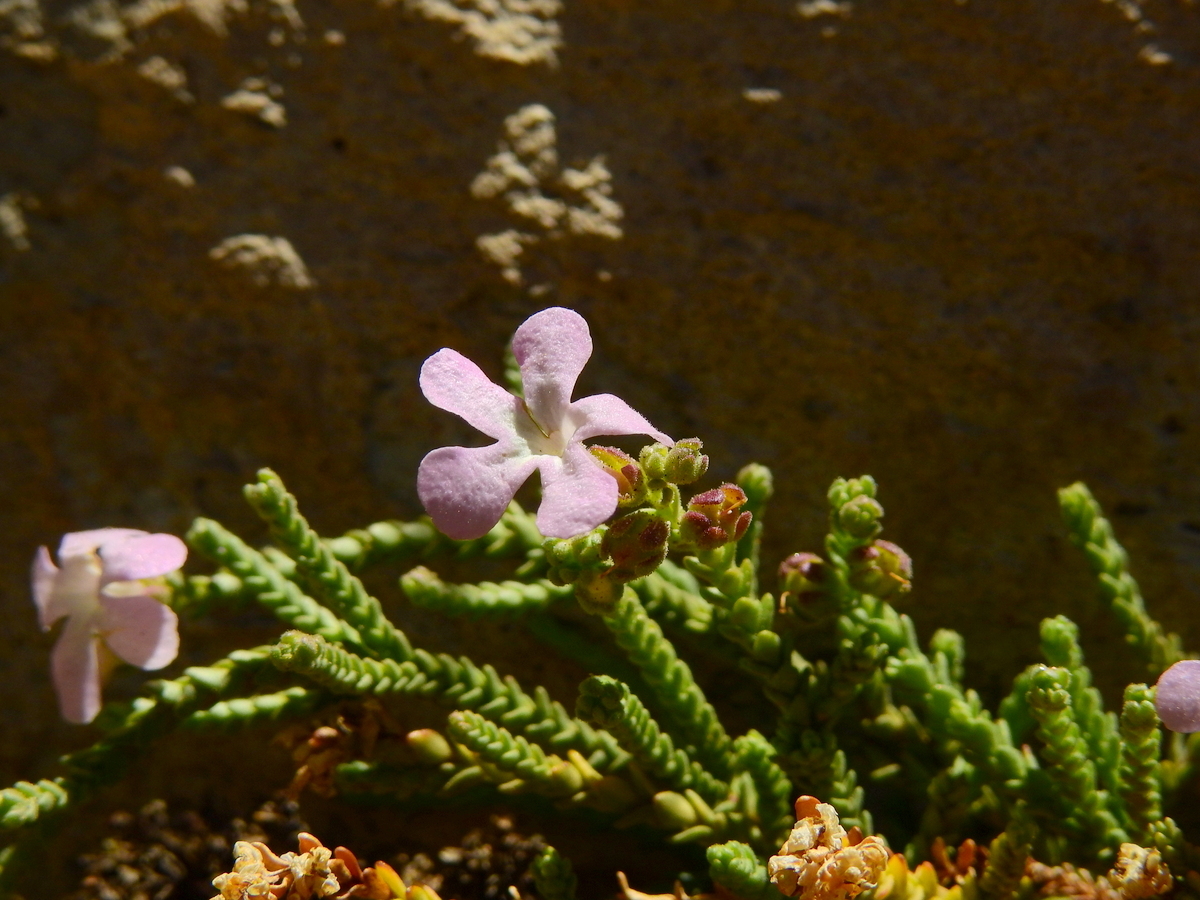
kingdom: Plantae
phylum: Tracheophyta
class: Magnoliopsida
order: Lamiales
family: Plantaginaceae
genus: Ourisia
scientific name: Ourisia microphylla
